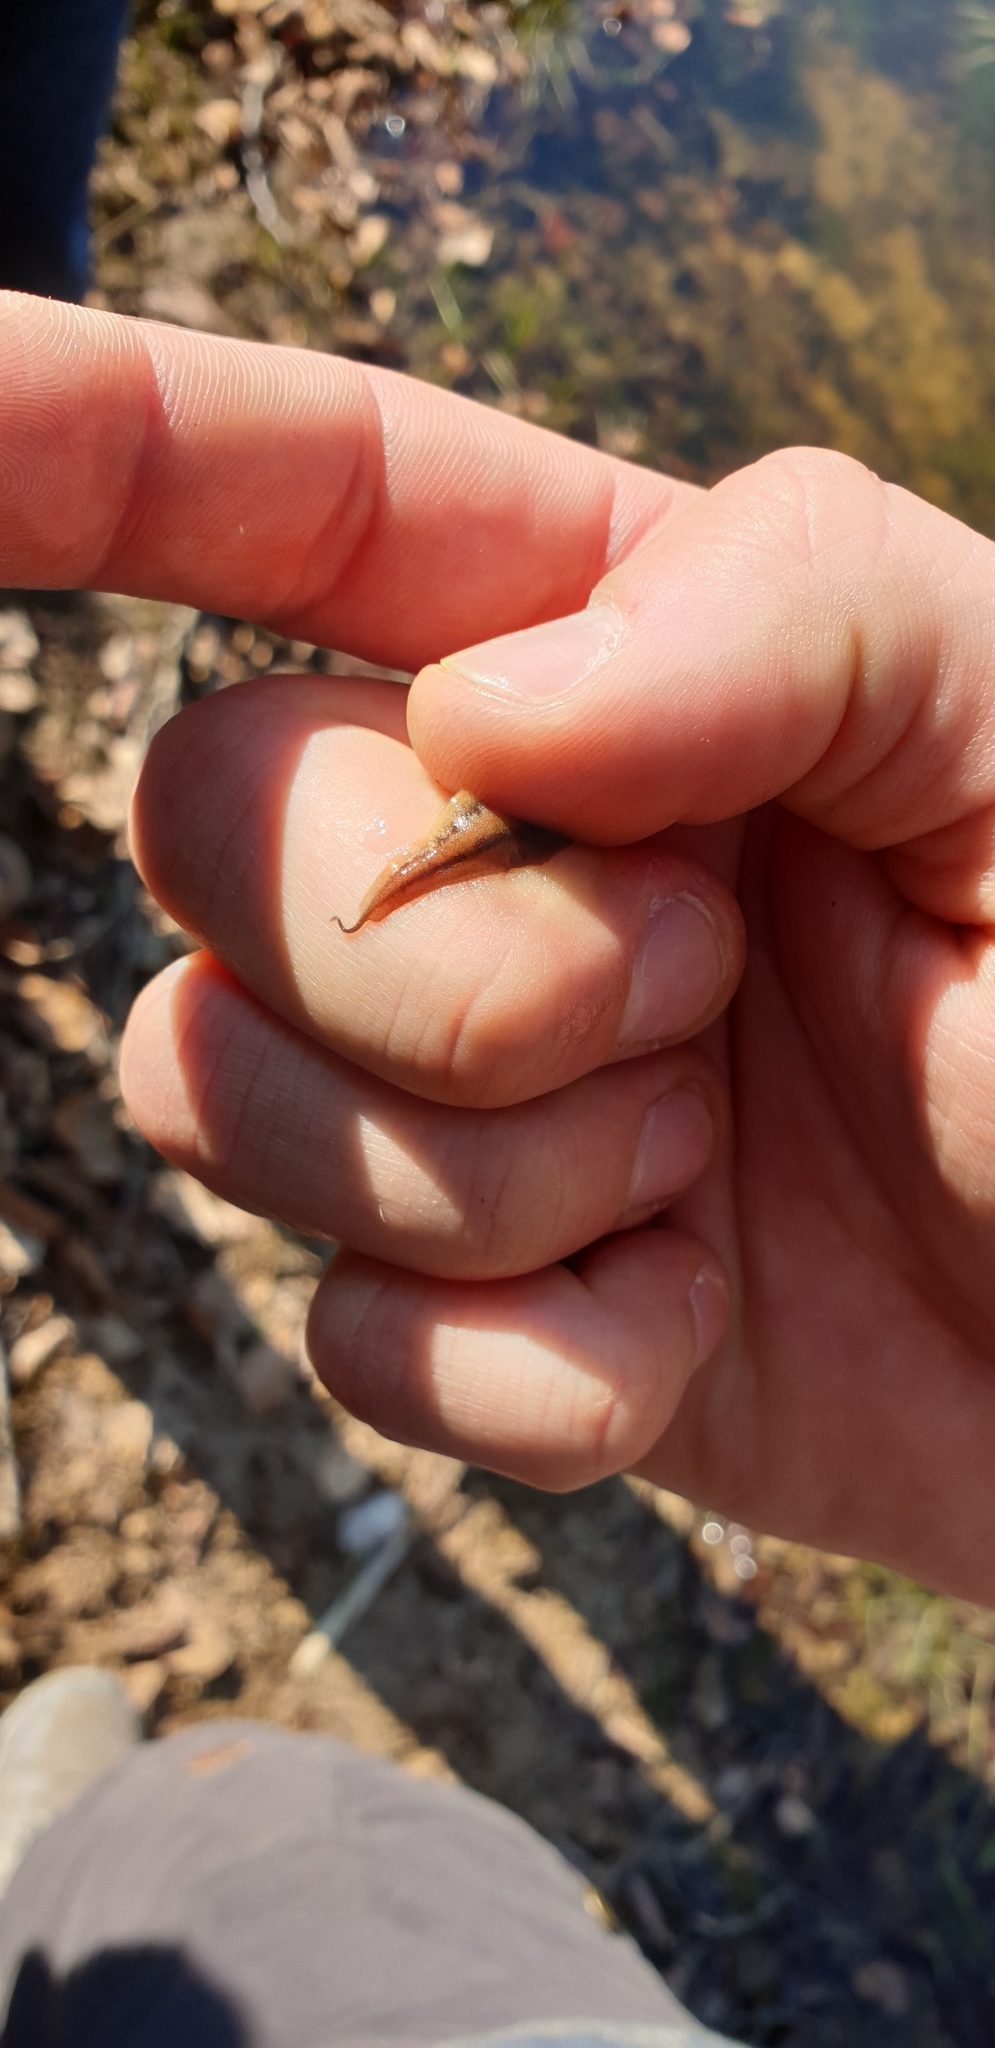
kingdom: Animalia
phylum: Chordata
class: Amphibia
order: Caudata
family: Salamandridae
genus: Lissotriton
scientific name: Lissotriton helveticus
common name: Palmate newt
